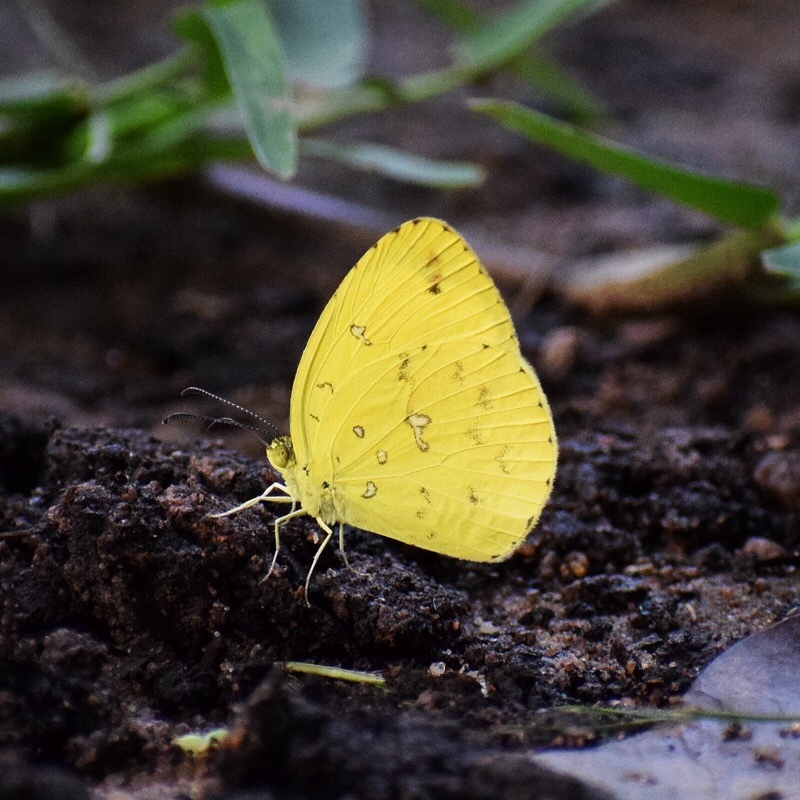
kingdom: Animalia
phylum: Arthropoda
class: Insecta
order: Lepidoptera
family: Pieridae
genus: Eurema
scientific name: Eurema floricola
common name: Malagasy grass yellow
